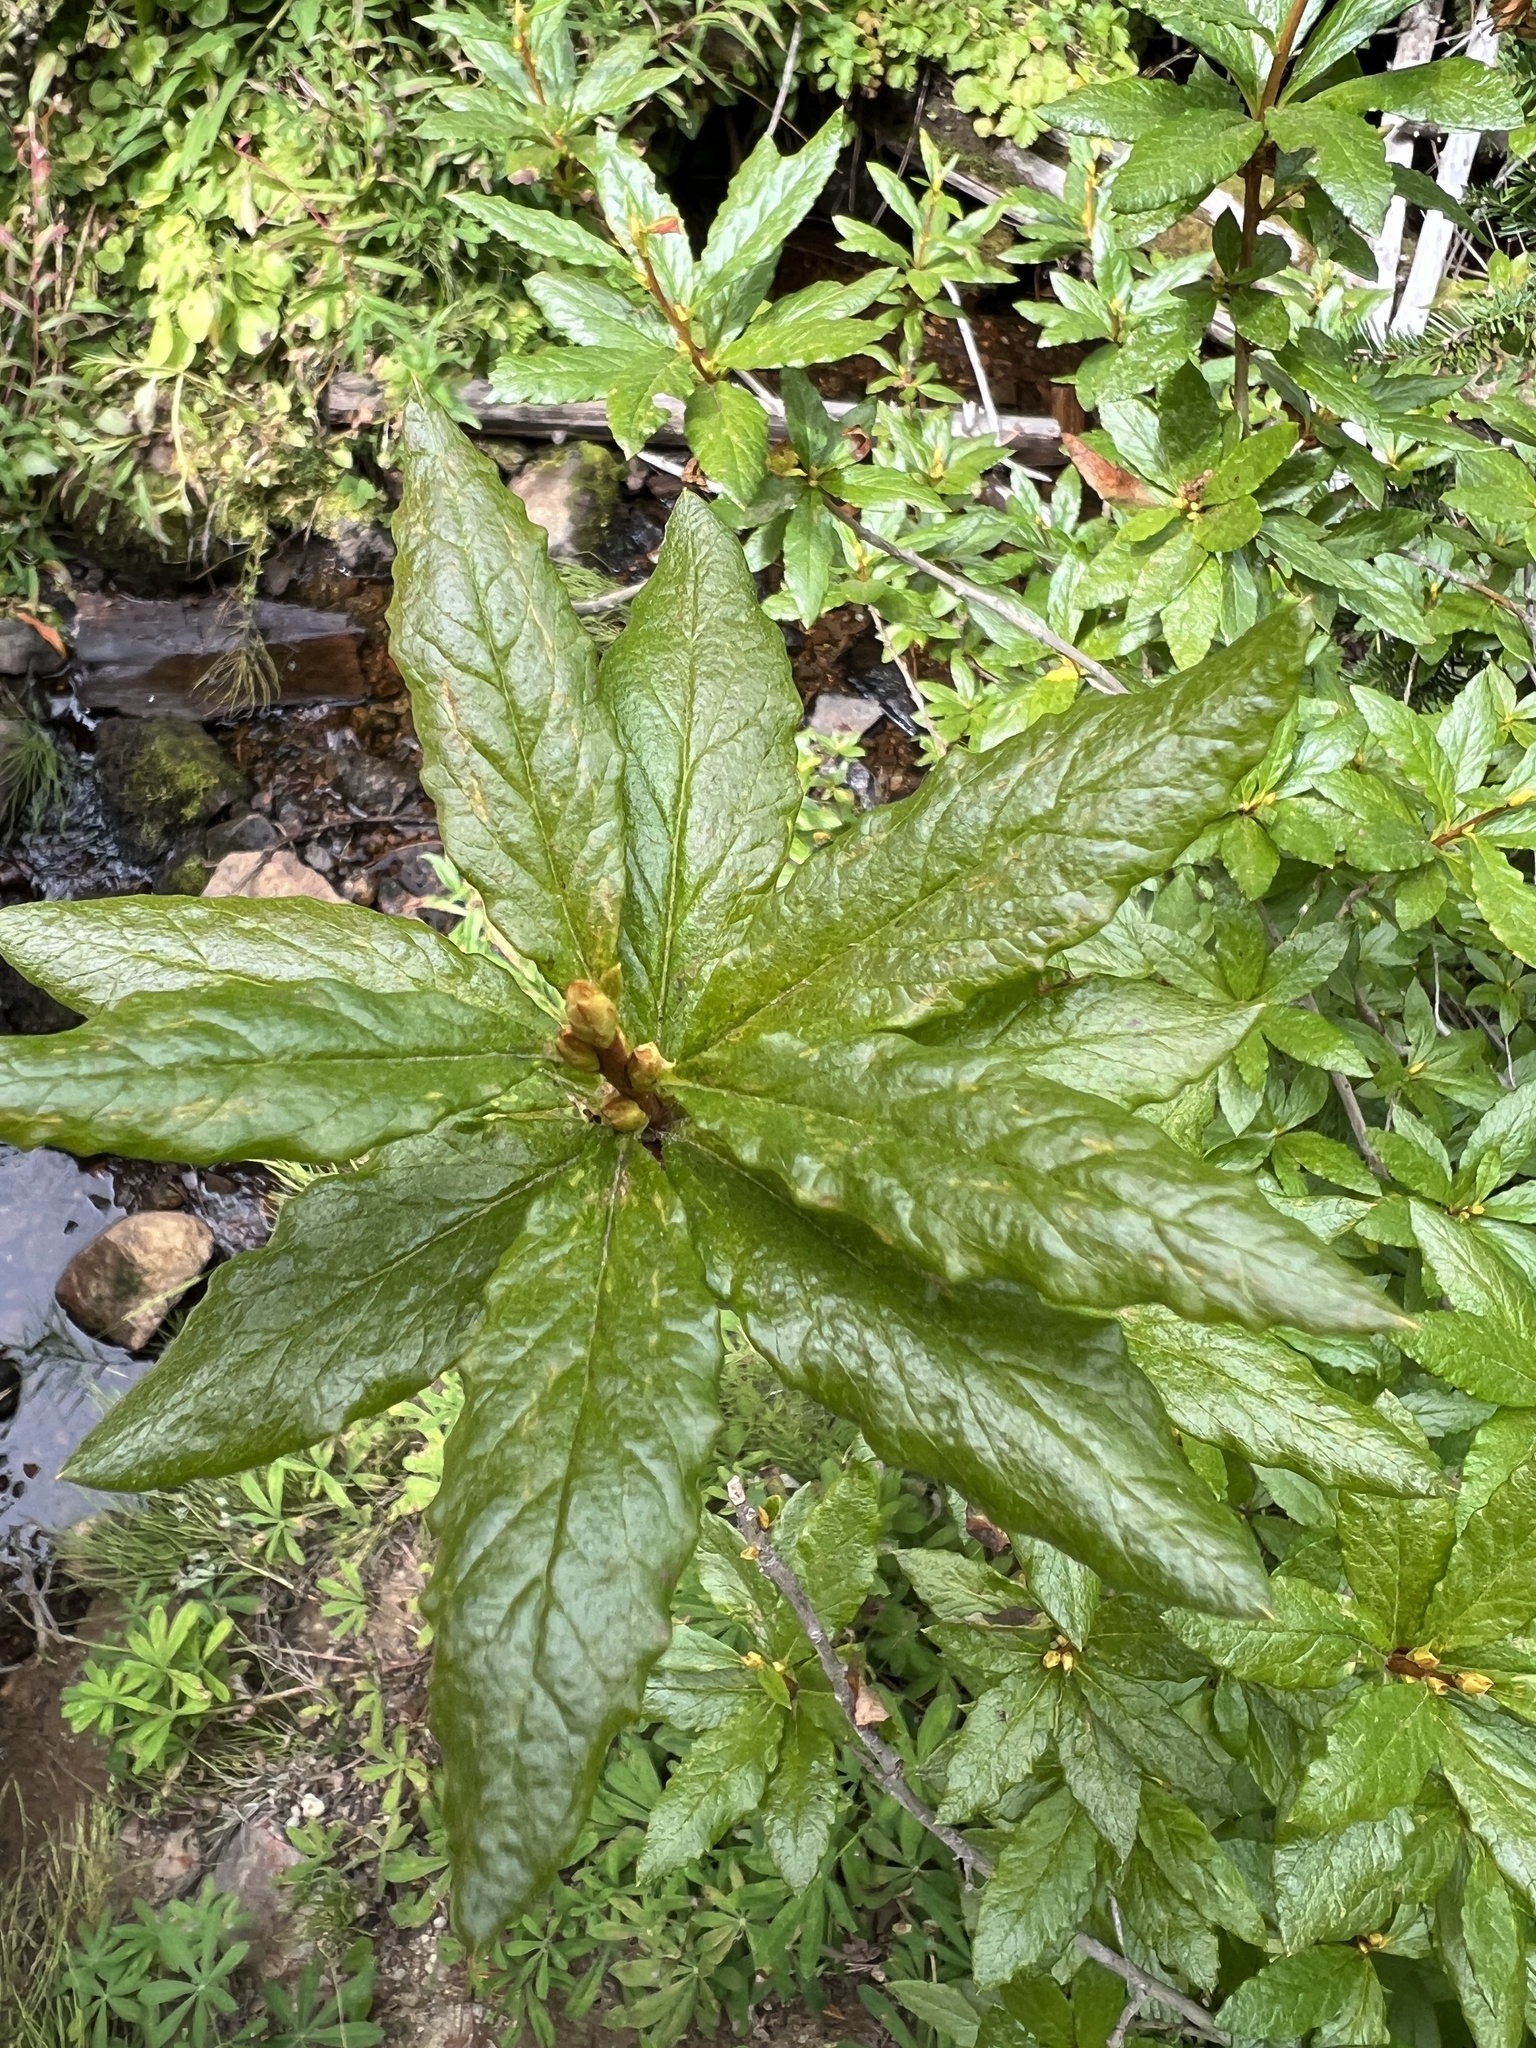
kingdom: Plantae
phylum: Tracheophyta
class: Magnoliopsida
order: Ericales
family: Ericaceae
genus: Rhododendron
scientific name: Rhododendron albiflorum
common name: White rhododendron
